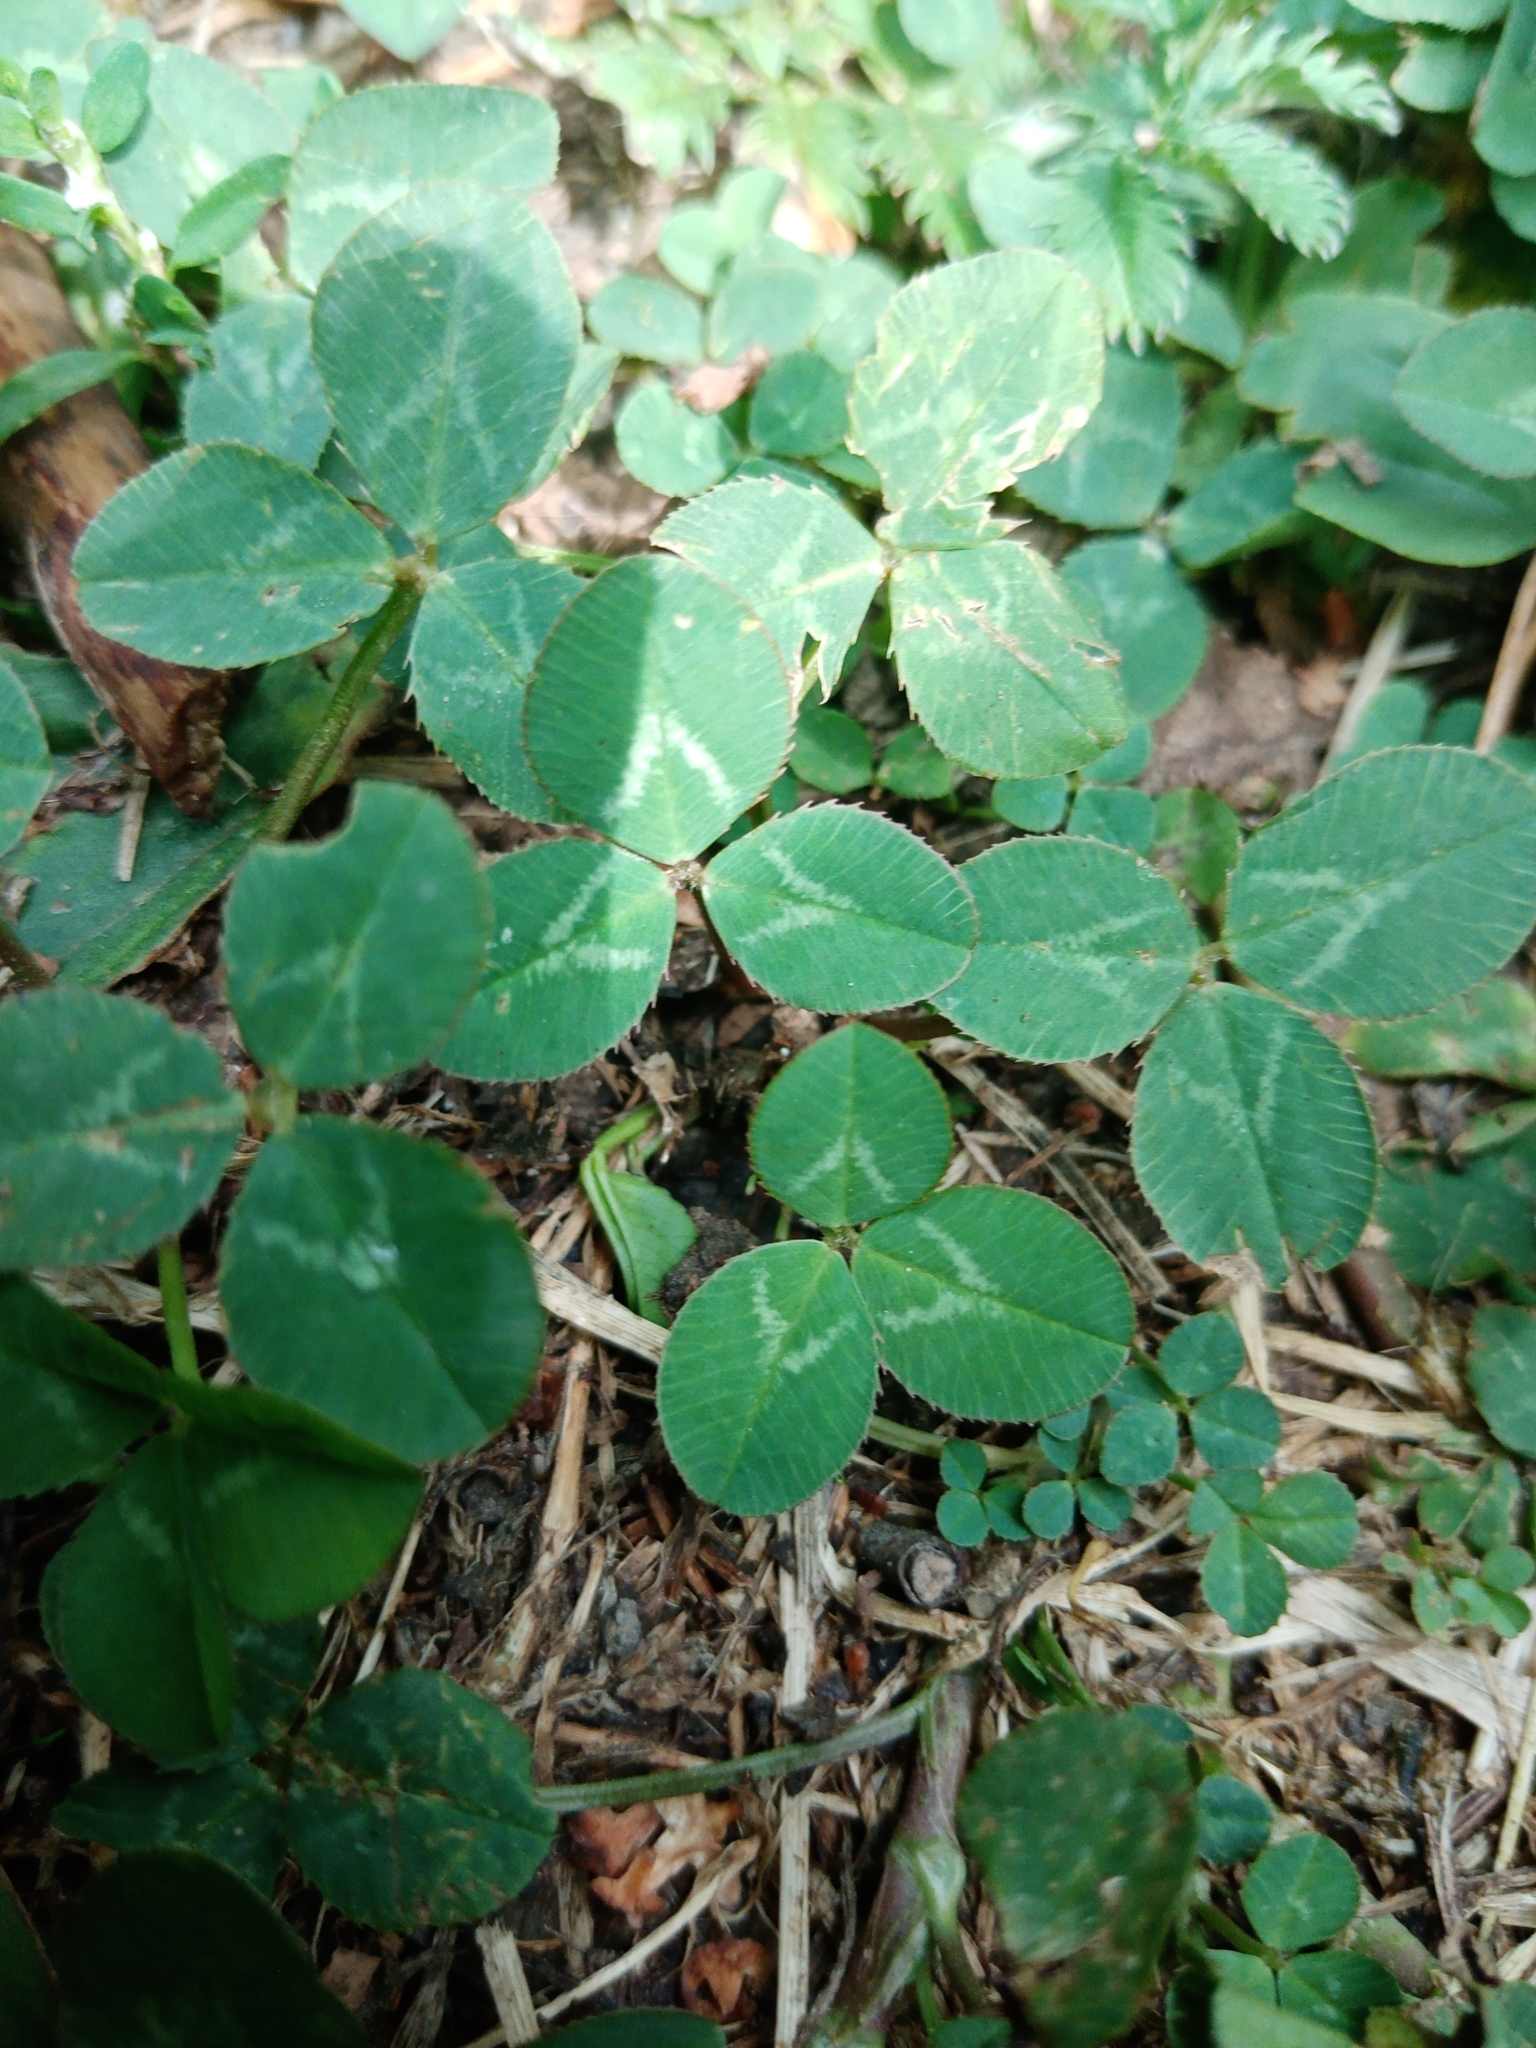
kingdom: Plantae
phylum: Tracheophyta
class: Magnoliopsida
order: Fabales
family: Fabaceae
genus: Trifolium
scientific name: Trifolium repens
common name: White clover
